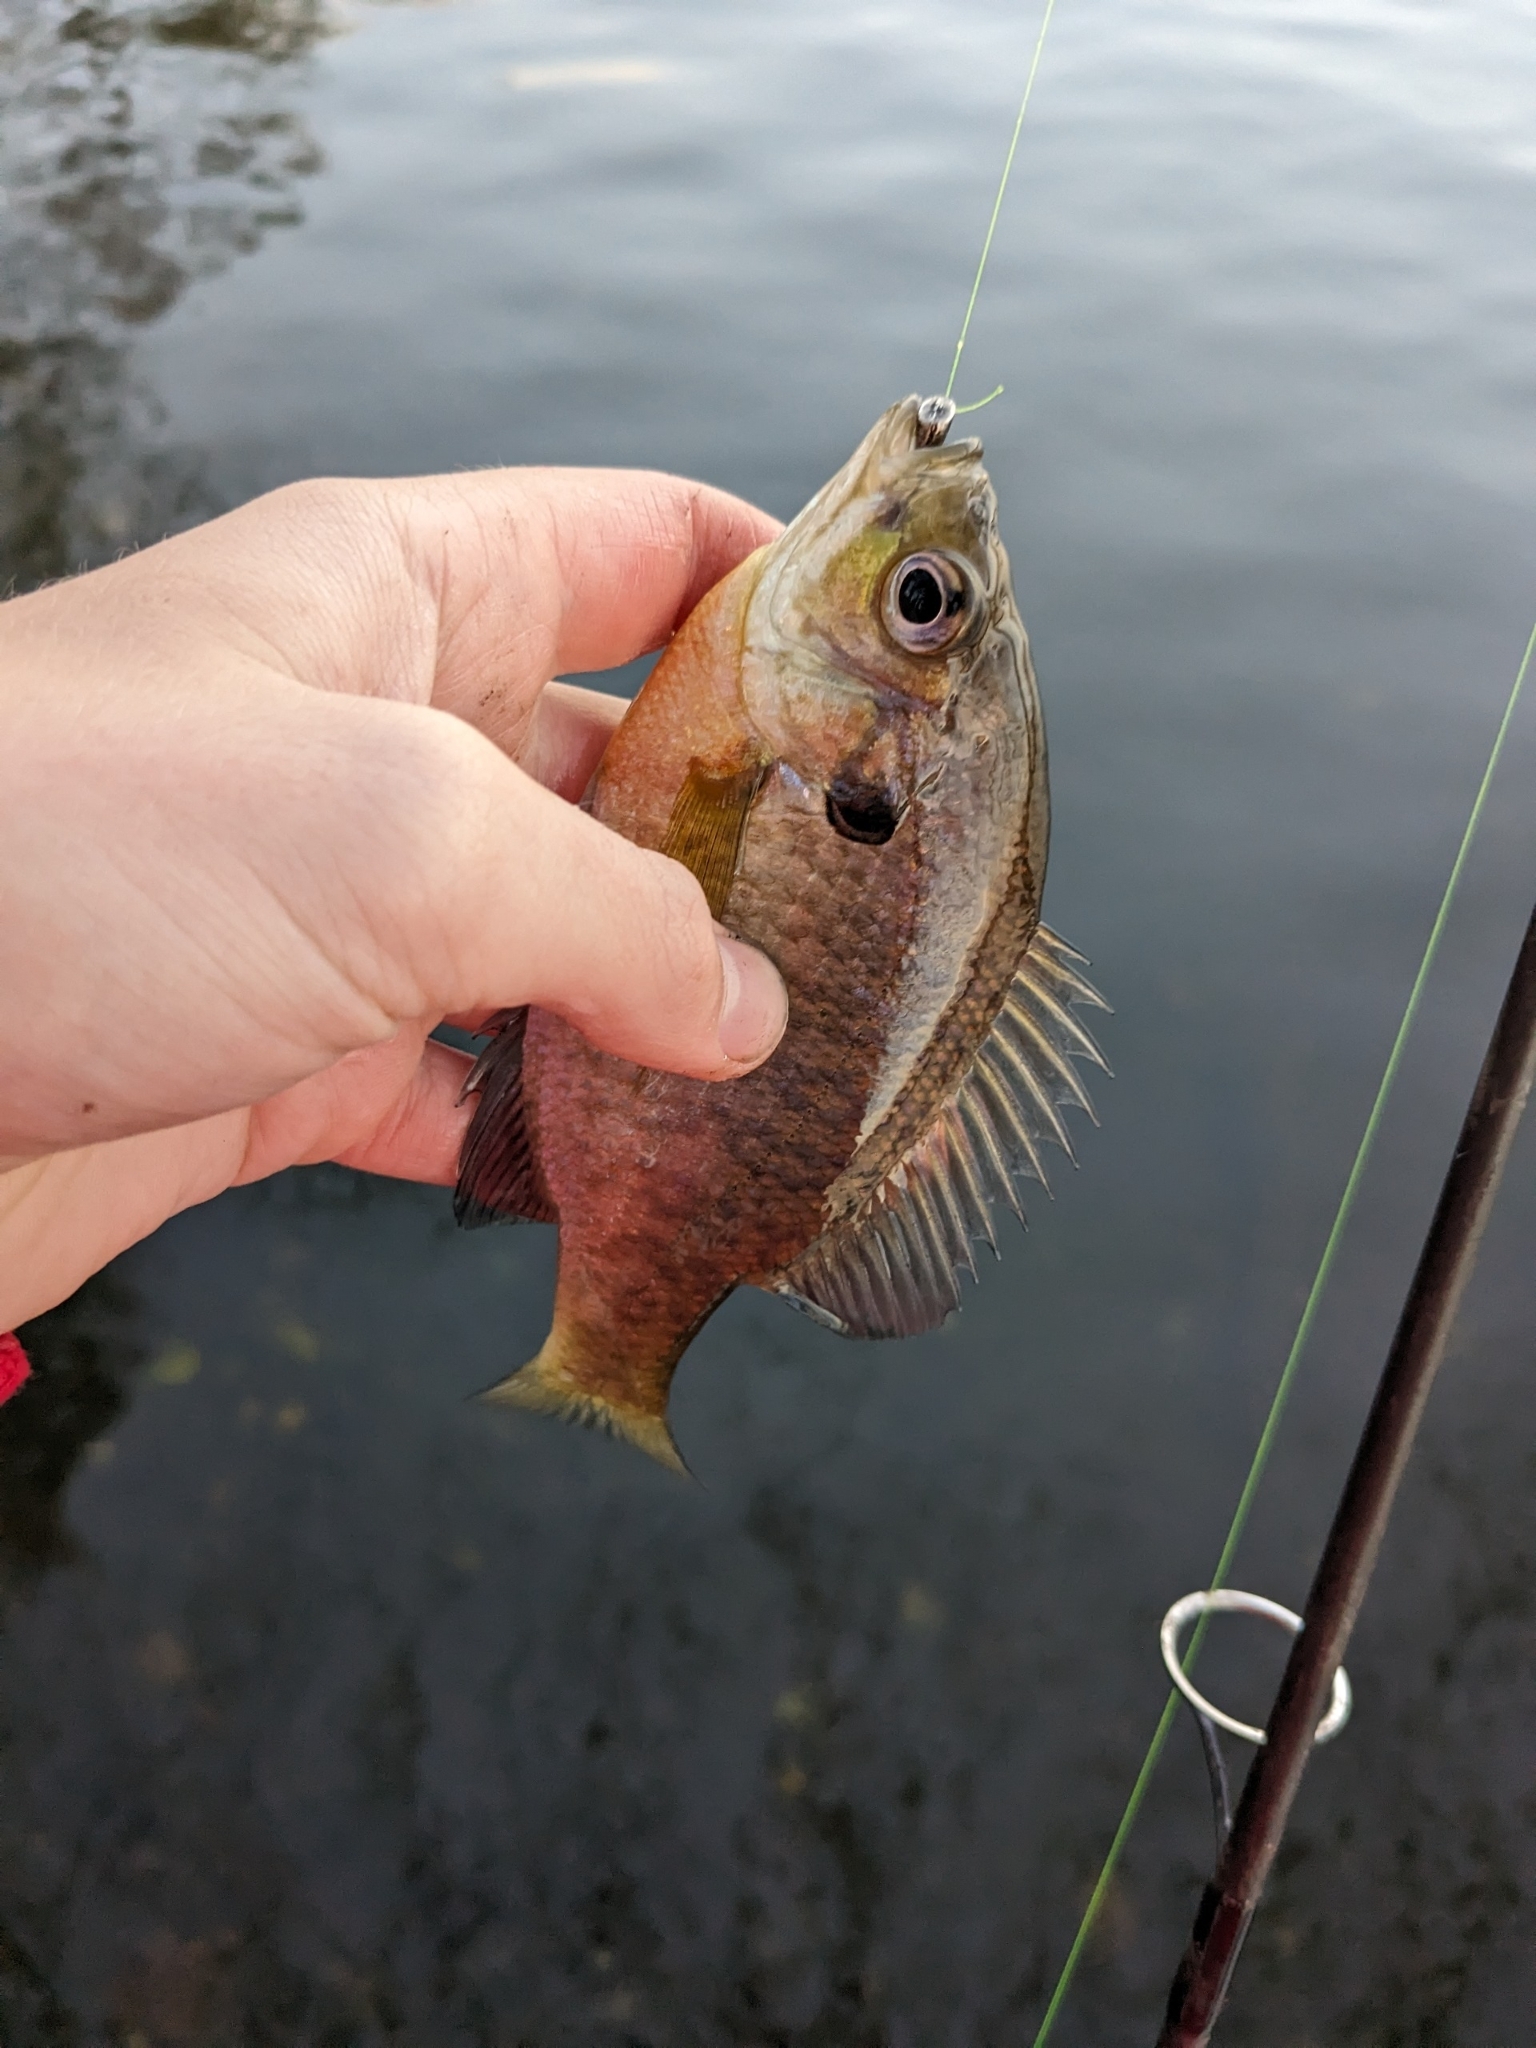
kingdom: Animalia
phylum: Chordata
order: Perciformes
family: Centrarchidae
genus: Lepomis
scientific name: Lepomis macrochirus
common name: Bluegill
